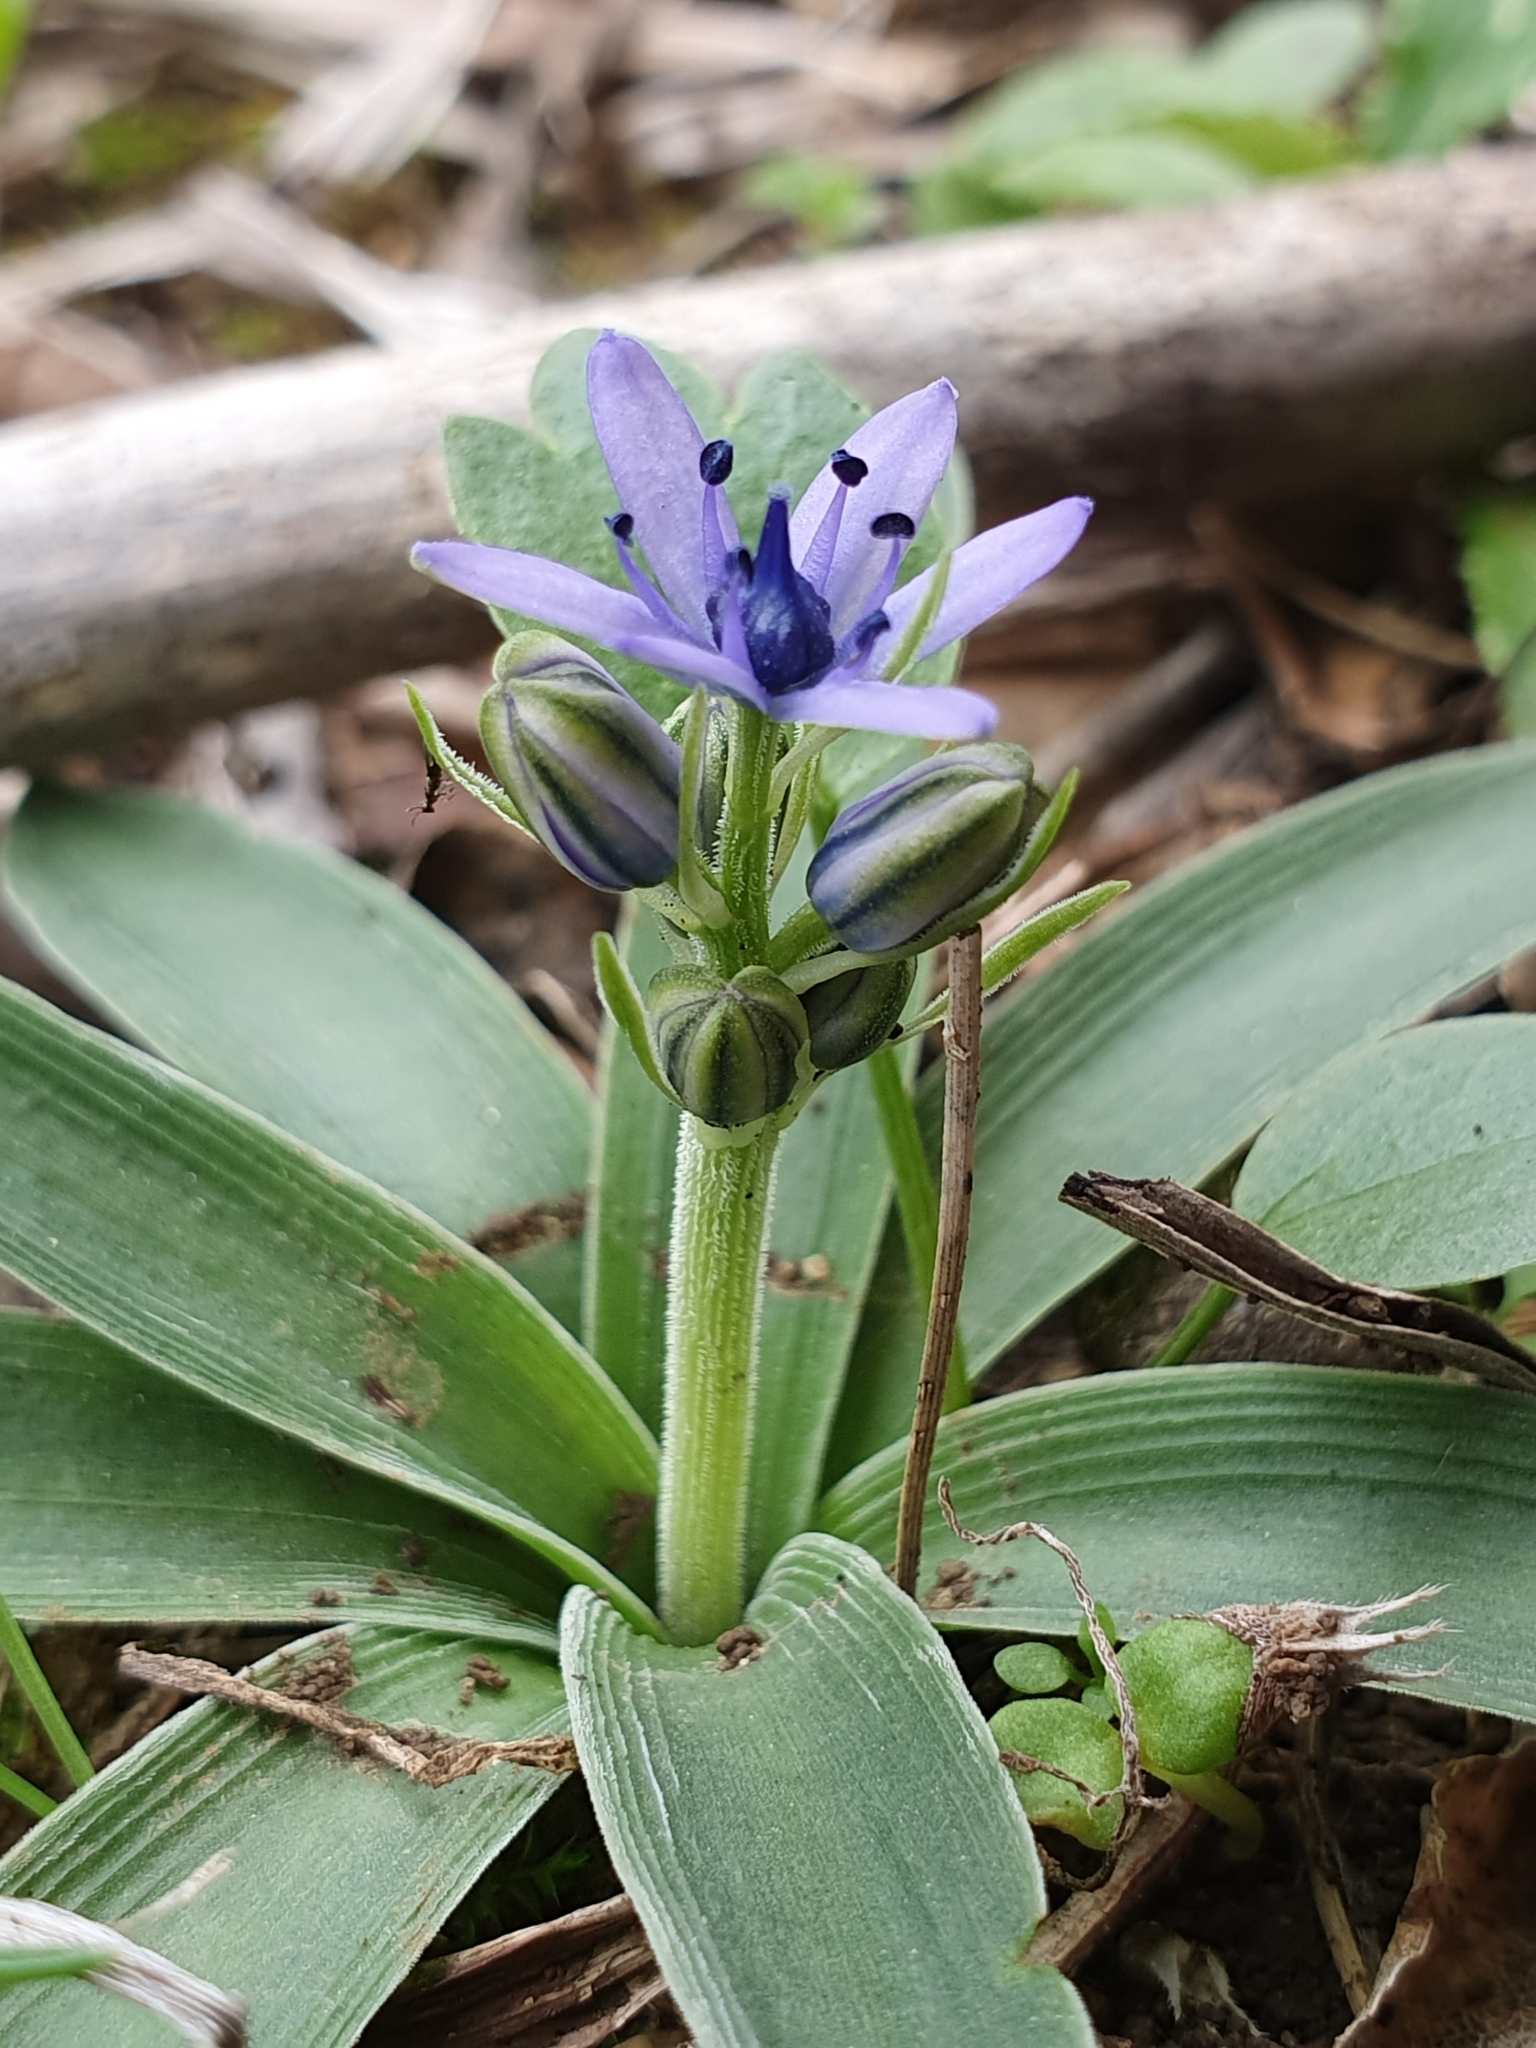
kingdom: Plantae
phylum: Tracheophyta
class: Liliopsida
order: Asparagales
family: Asparagaceae
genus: Hyacinthoides
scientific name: Hyacinthoides lingulata
